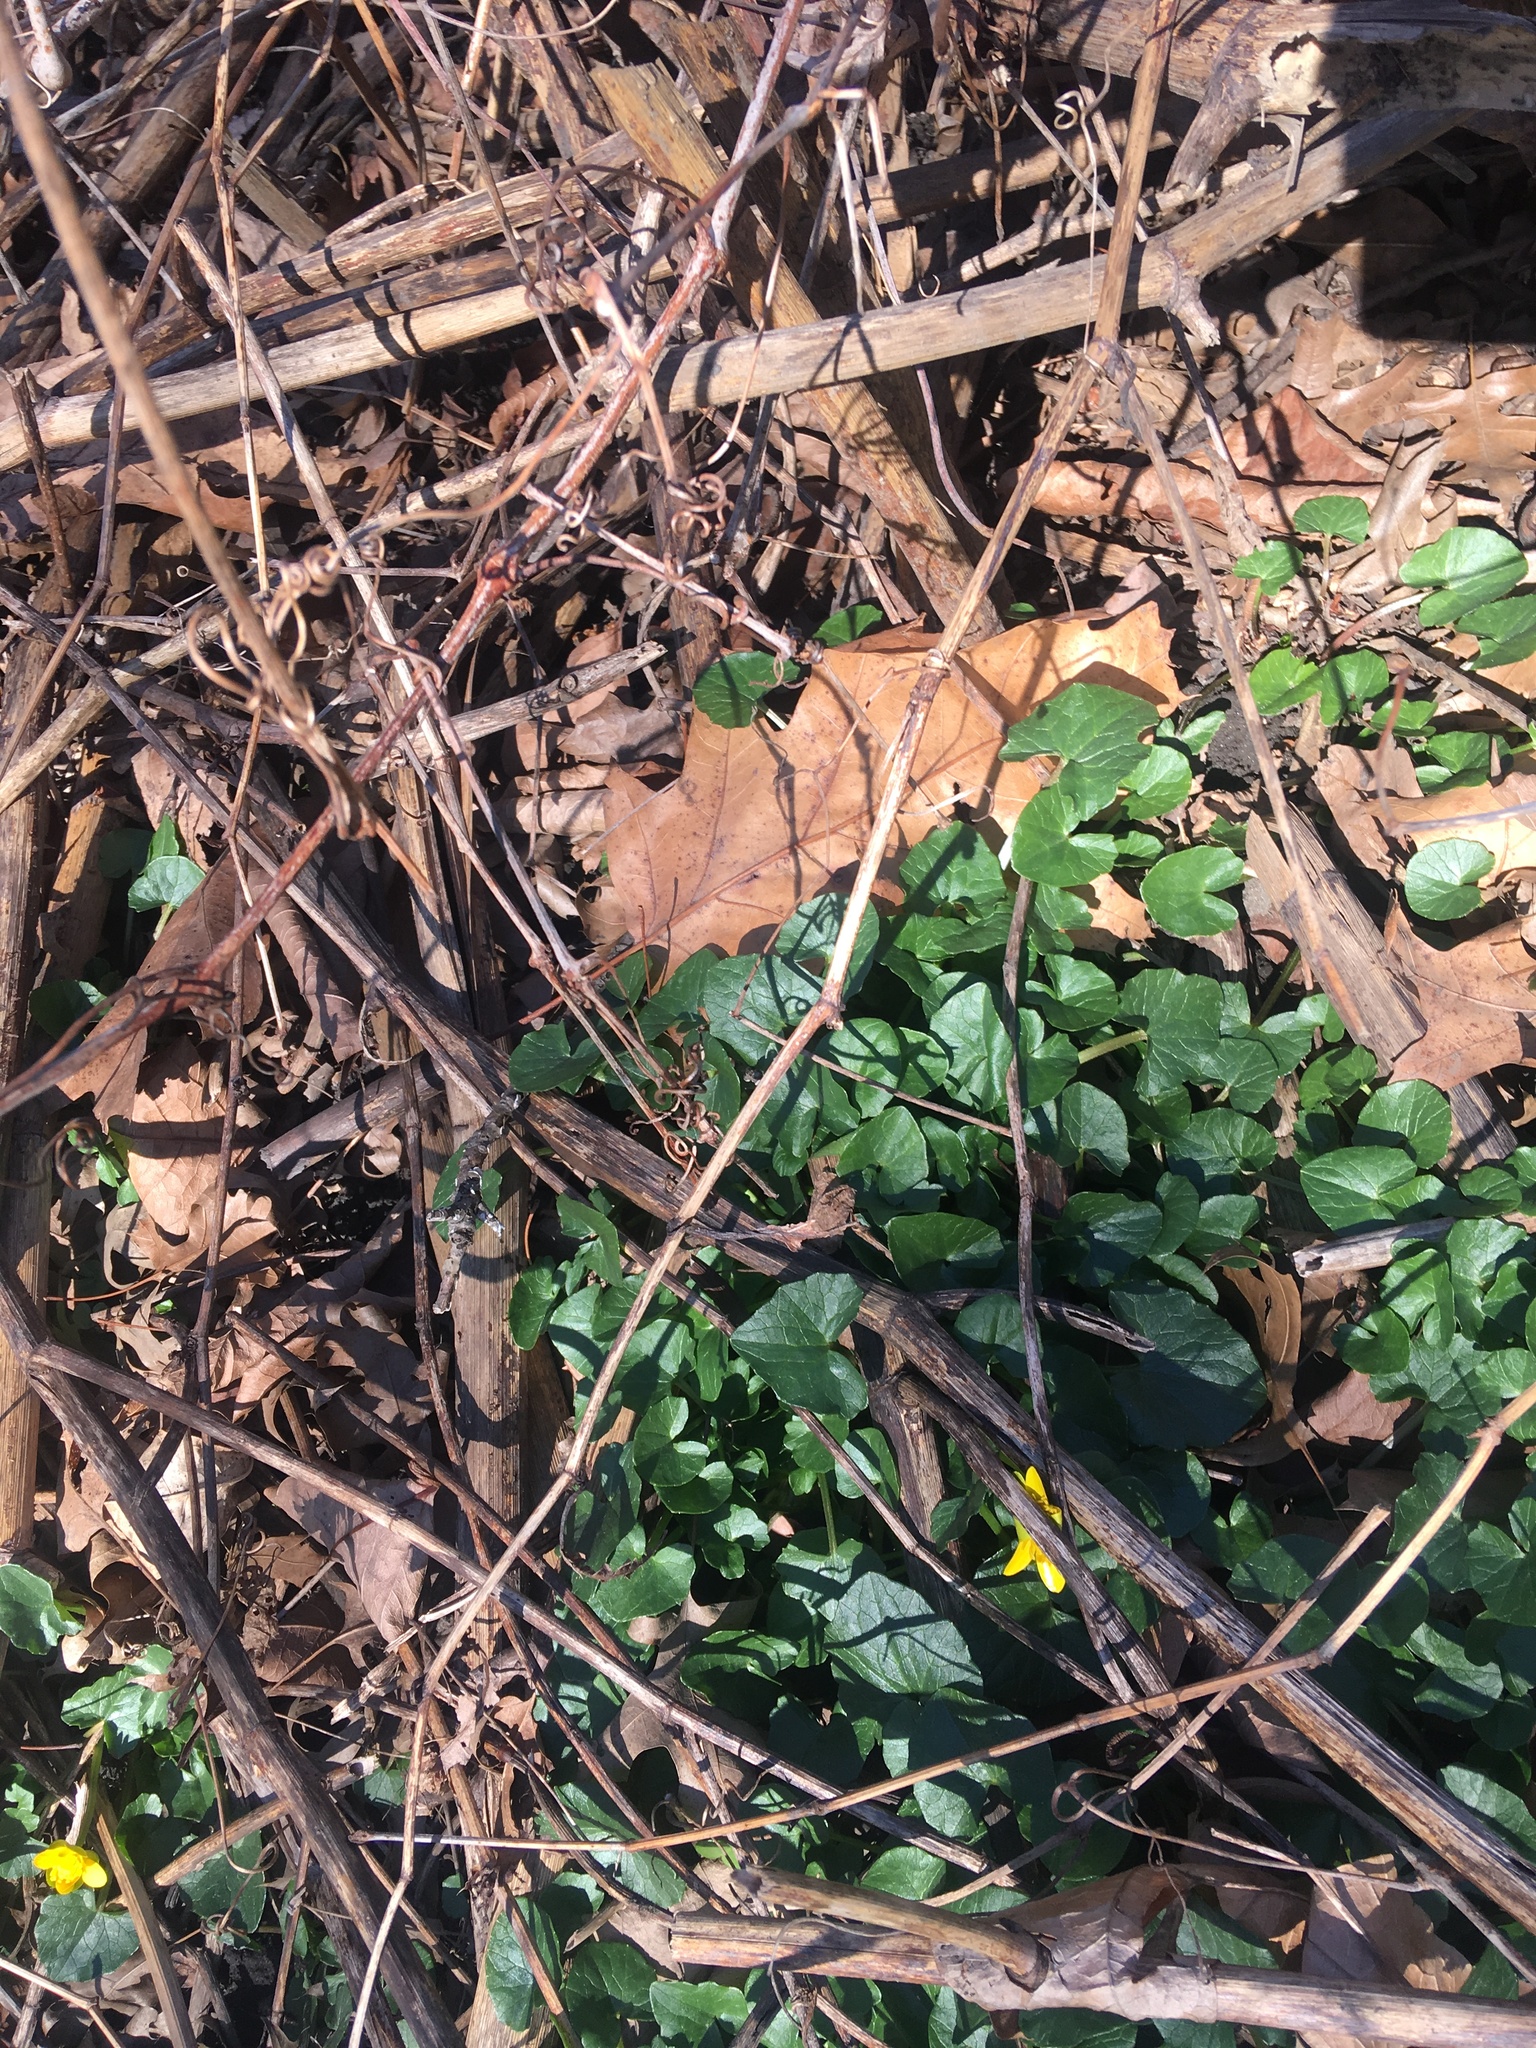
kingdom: Plantae
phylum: Tracheophyta
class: Magnoliopsida
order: Ranunculales
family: Ranunculaceae
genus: Ficaria
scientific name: Ficaria verna
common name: Lesser celandine
